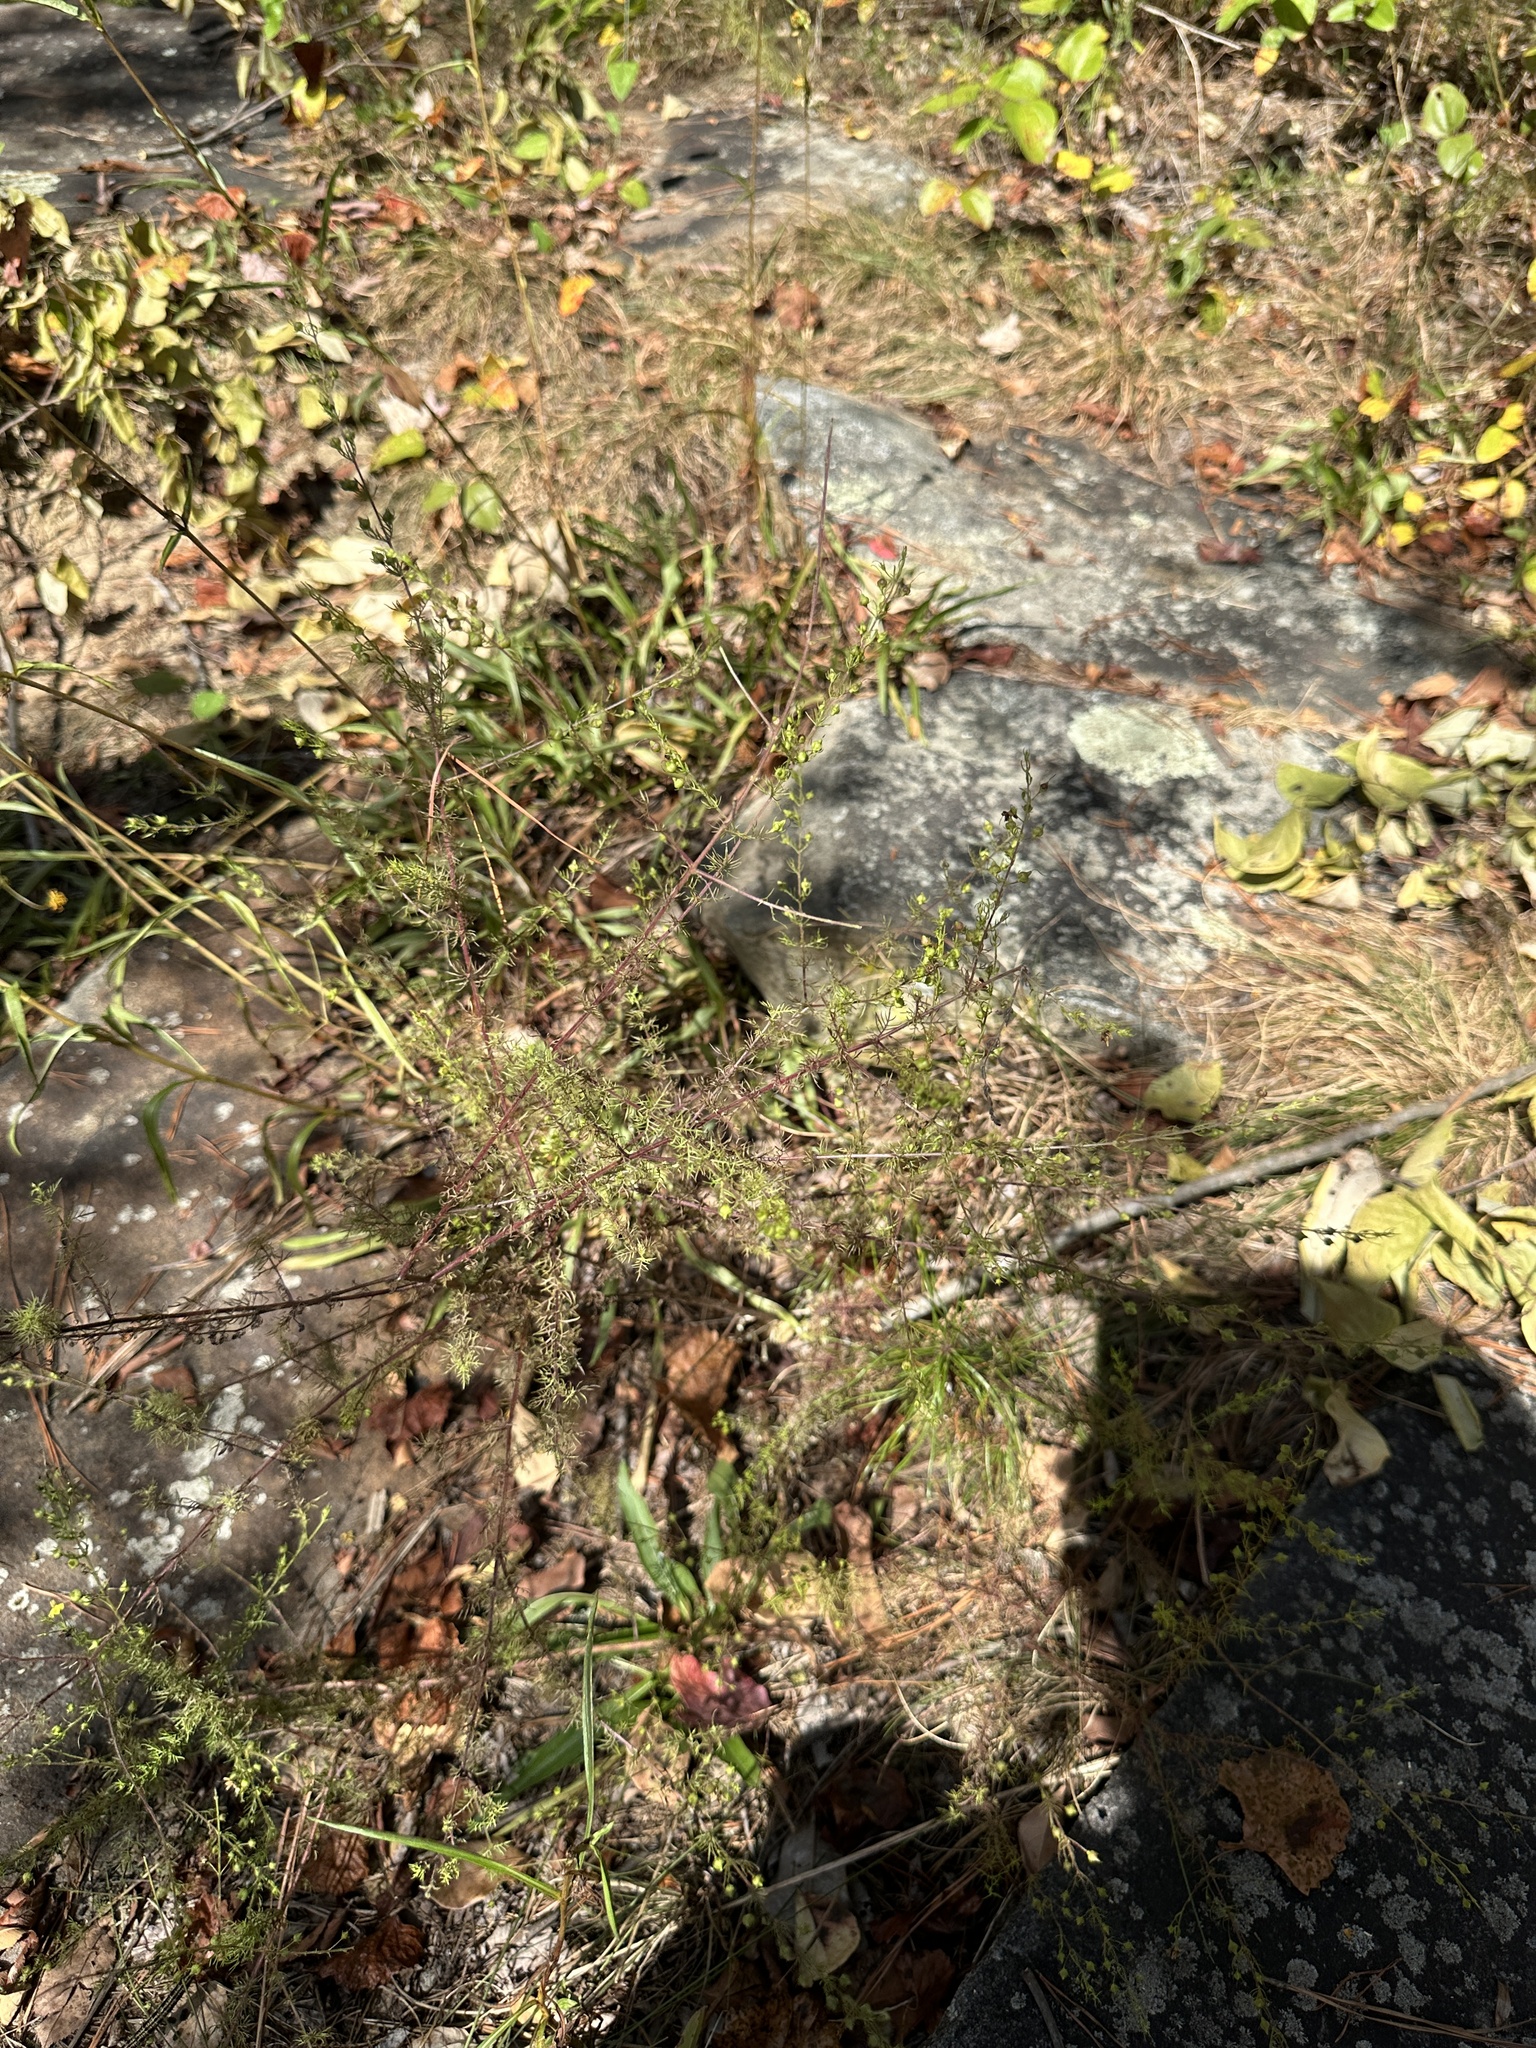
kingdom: Plantae
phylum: Tracheophyta
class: Magnoliopsida
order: Lamiales
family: Orobanchaceae
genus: Seymeria
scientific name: Seymeria cassioides
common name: Yaupon black-senna
